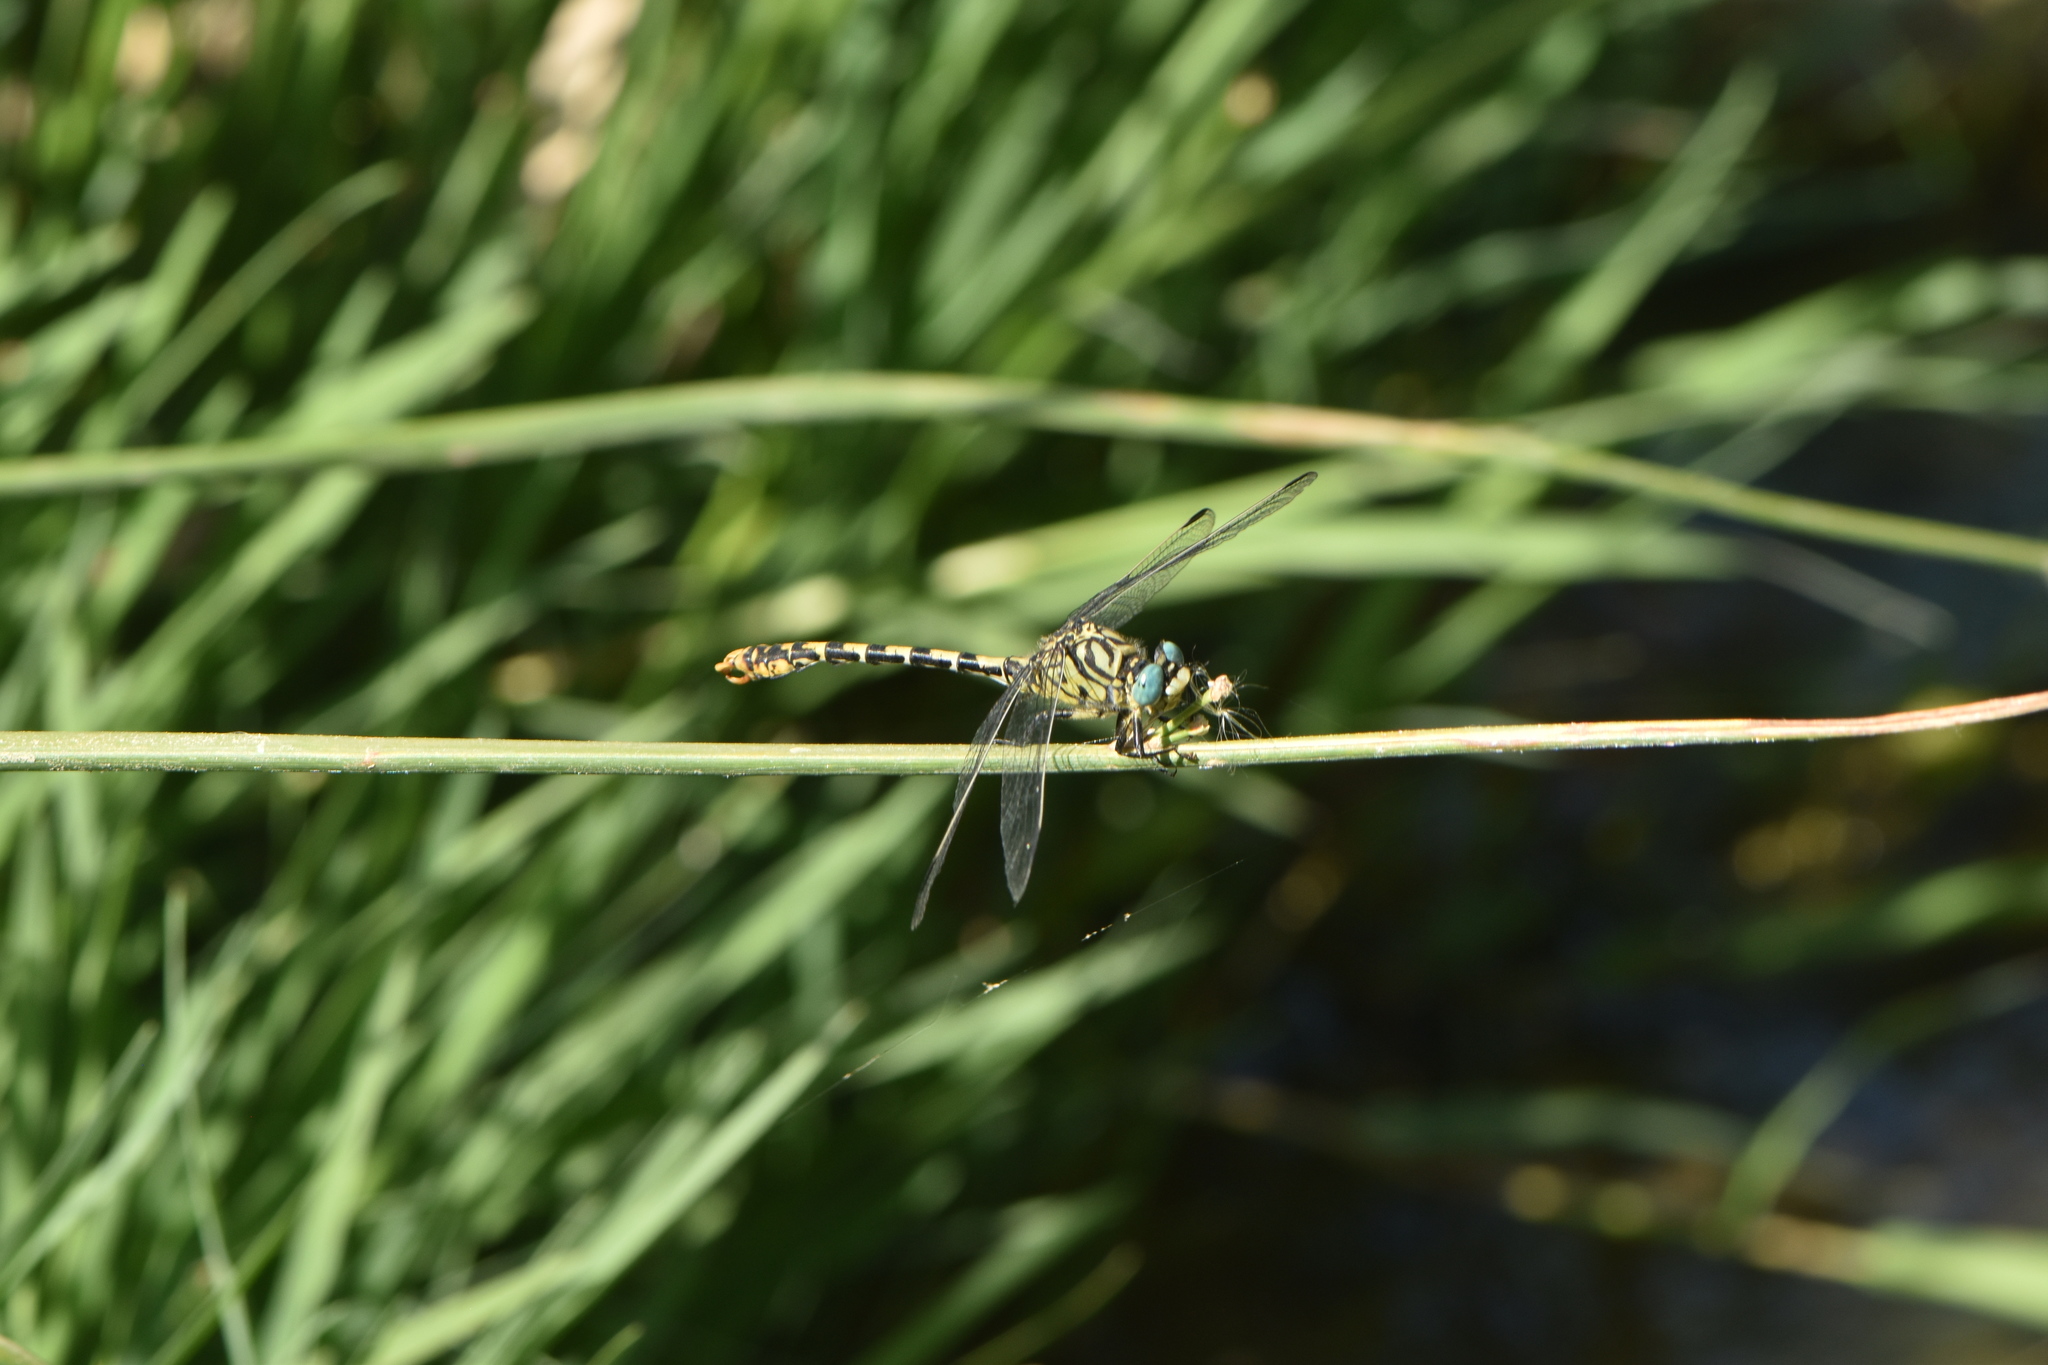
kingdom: Animalia
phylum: Arthropoda
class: Insecta
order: Odonata
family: Gomphidae
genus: Onychogomphus
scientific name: Onychogomphus forcipatus
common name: Small pincertail
